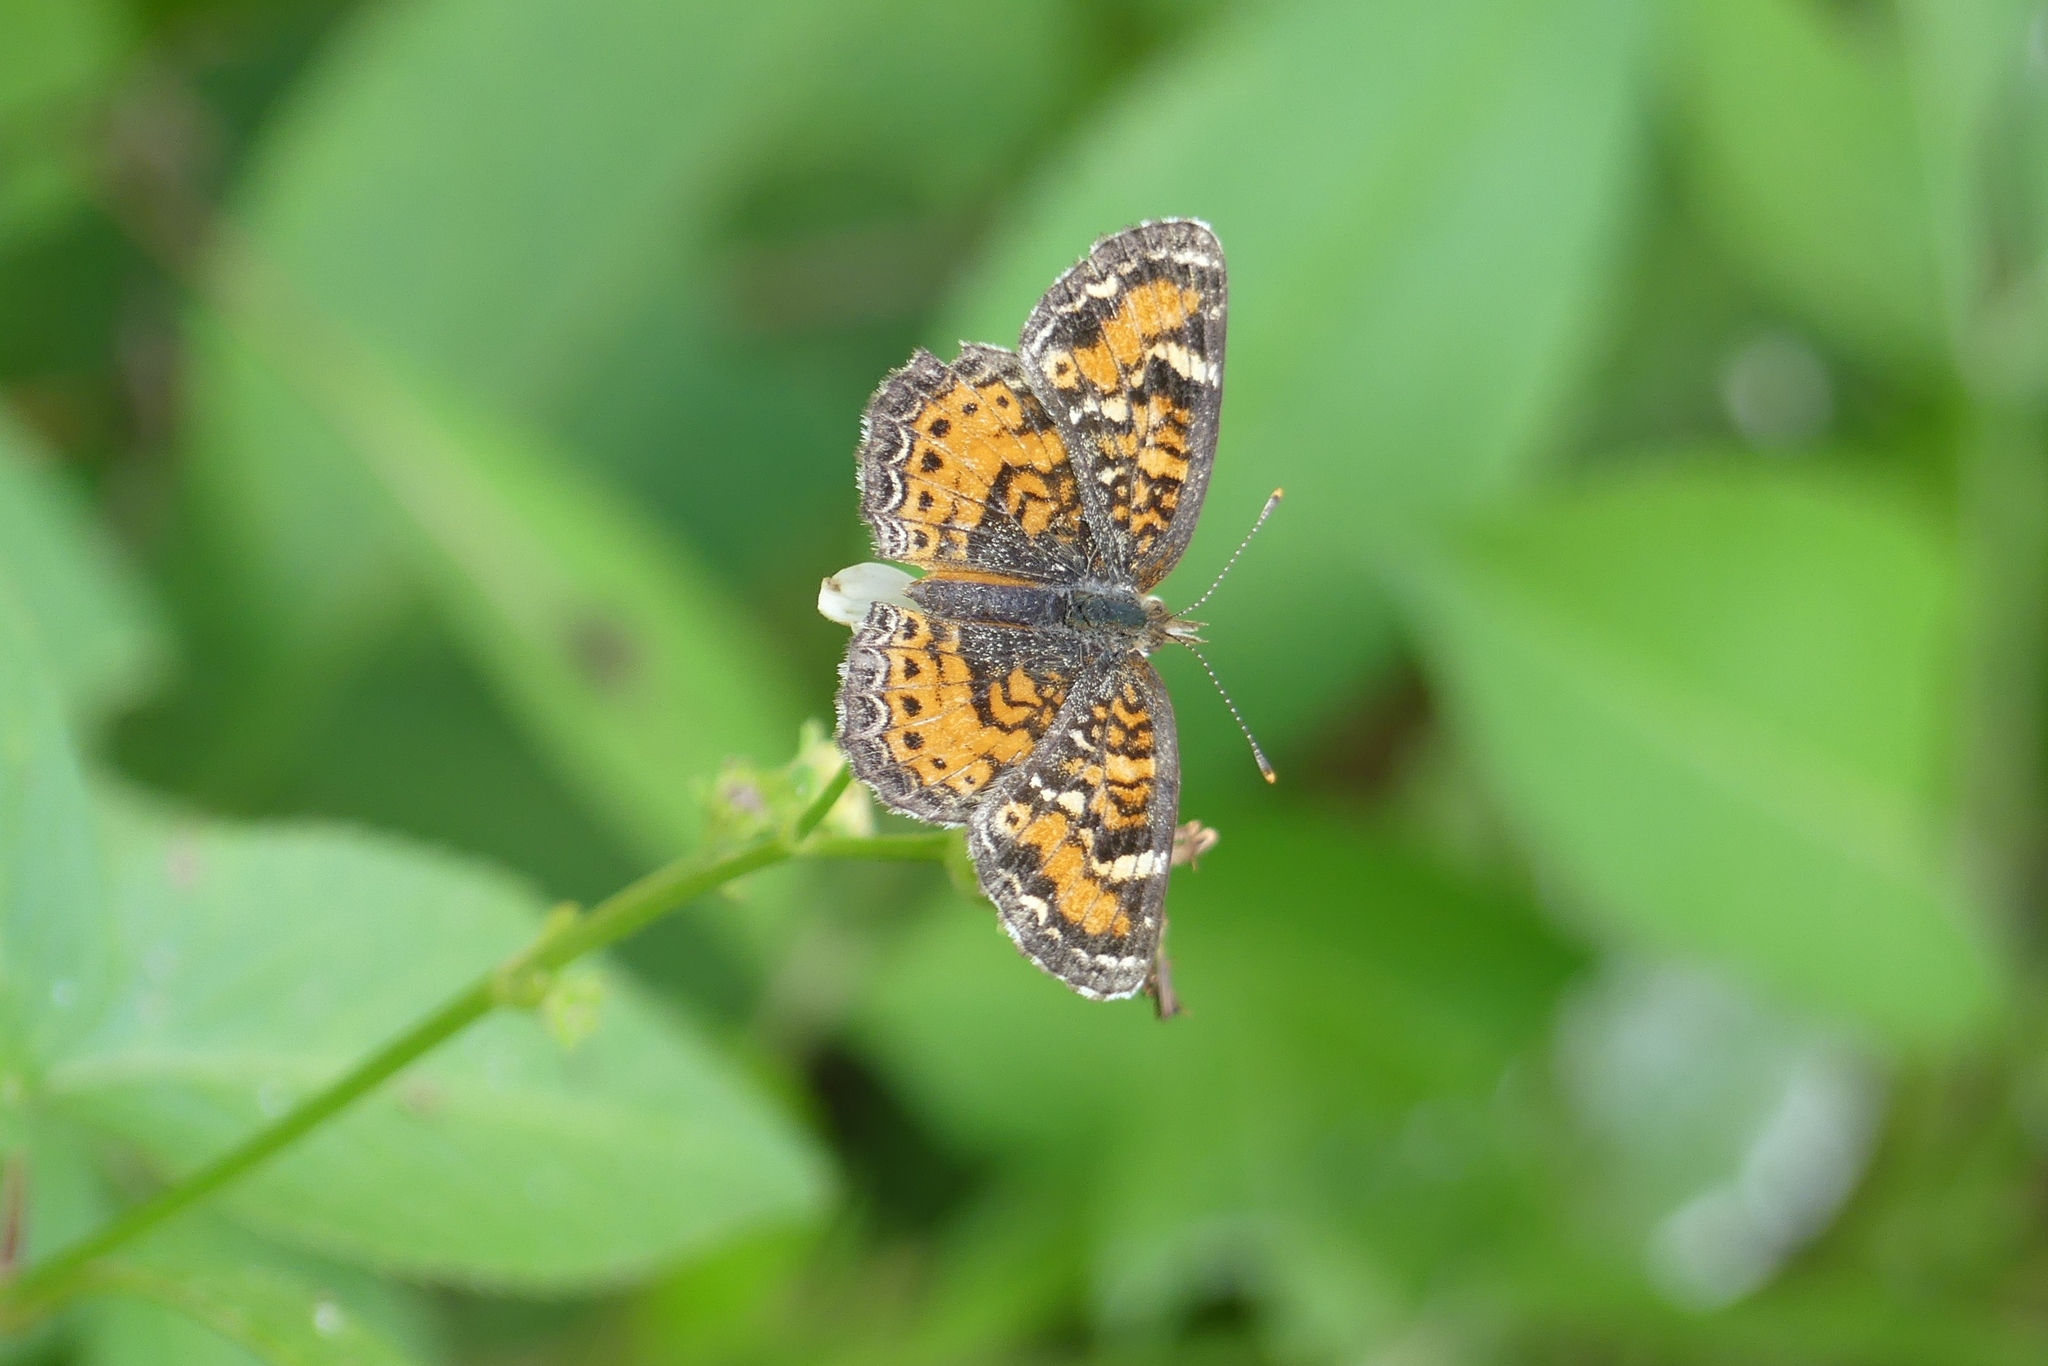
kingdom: Animalia
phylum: Arthropoda
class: Insecta
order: Lepidoptera
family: Nymphalidae
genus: Phyciodes
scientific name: Phyciodes phaon
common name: Phaon crescent
